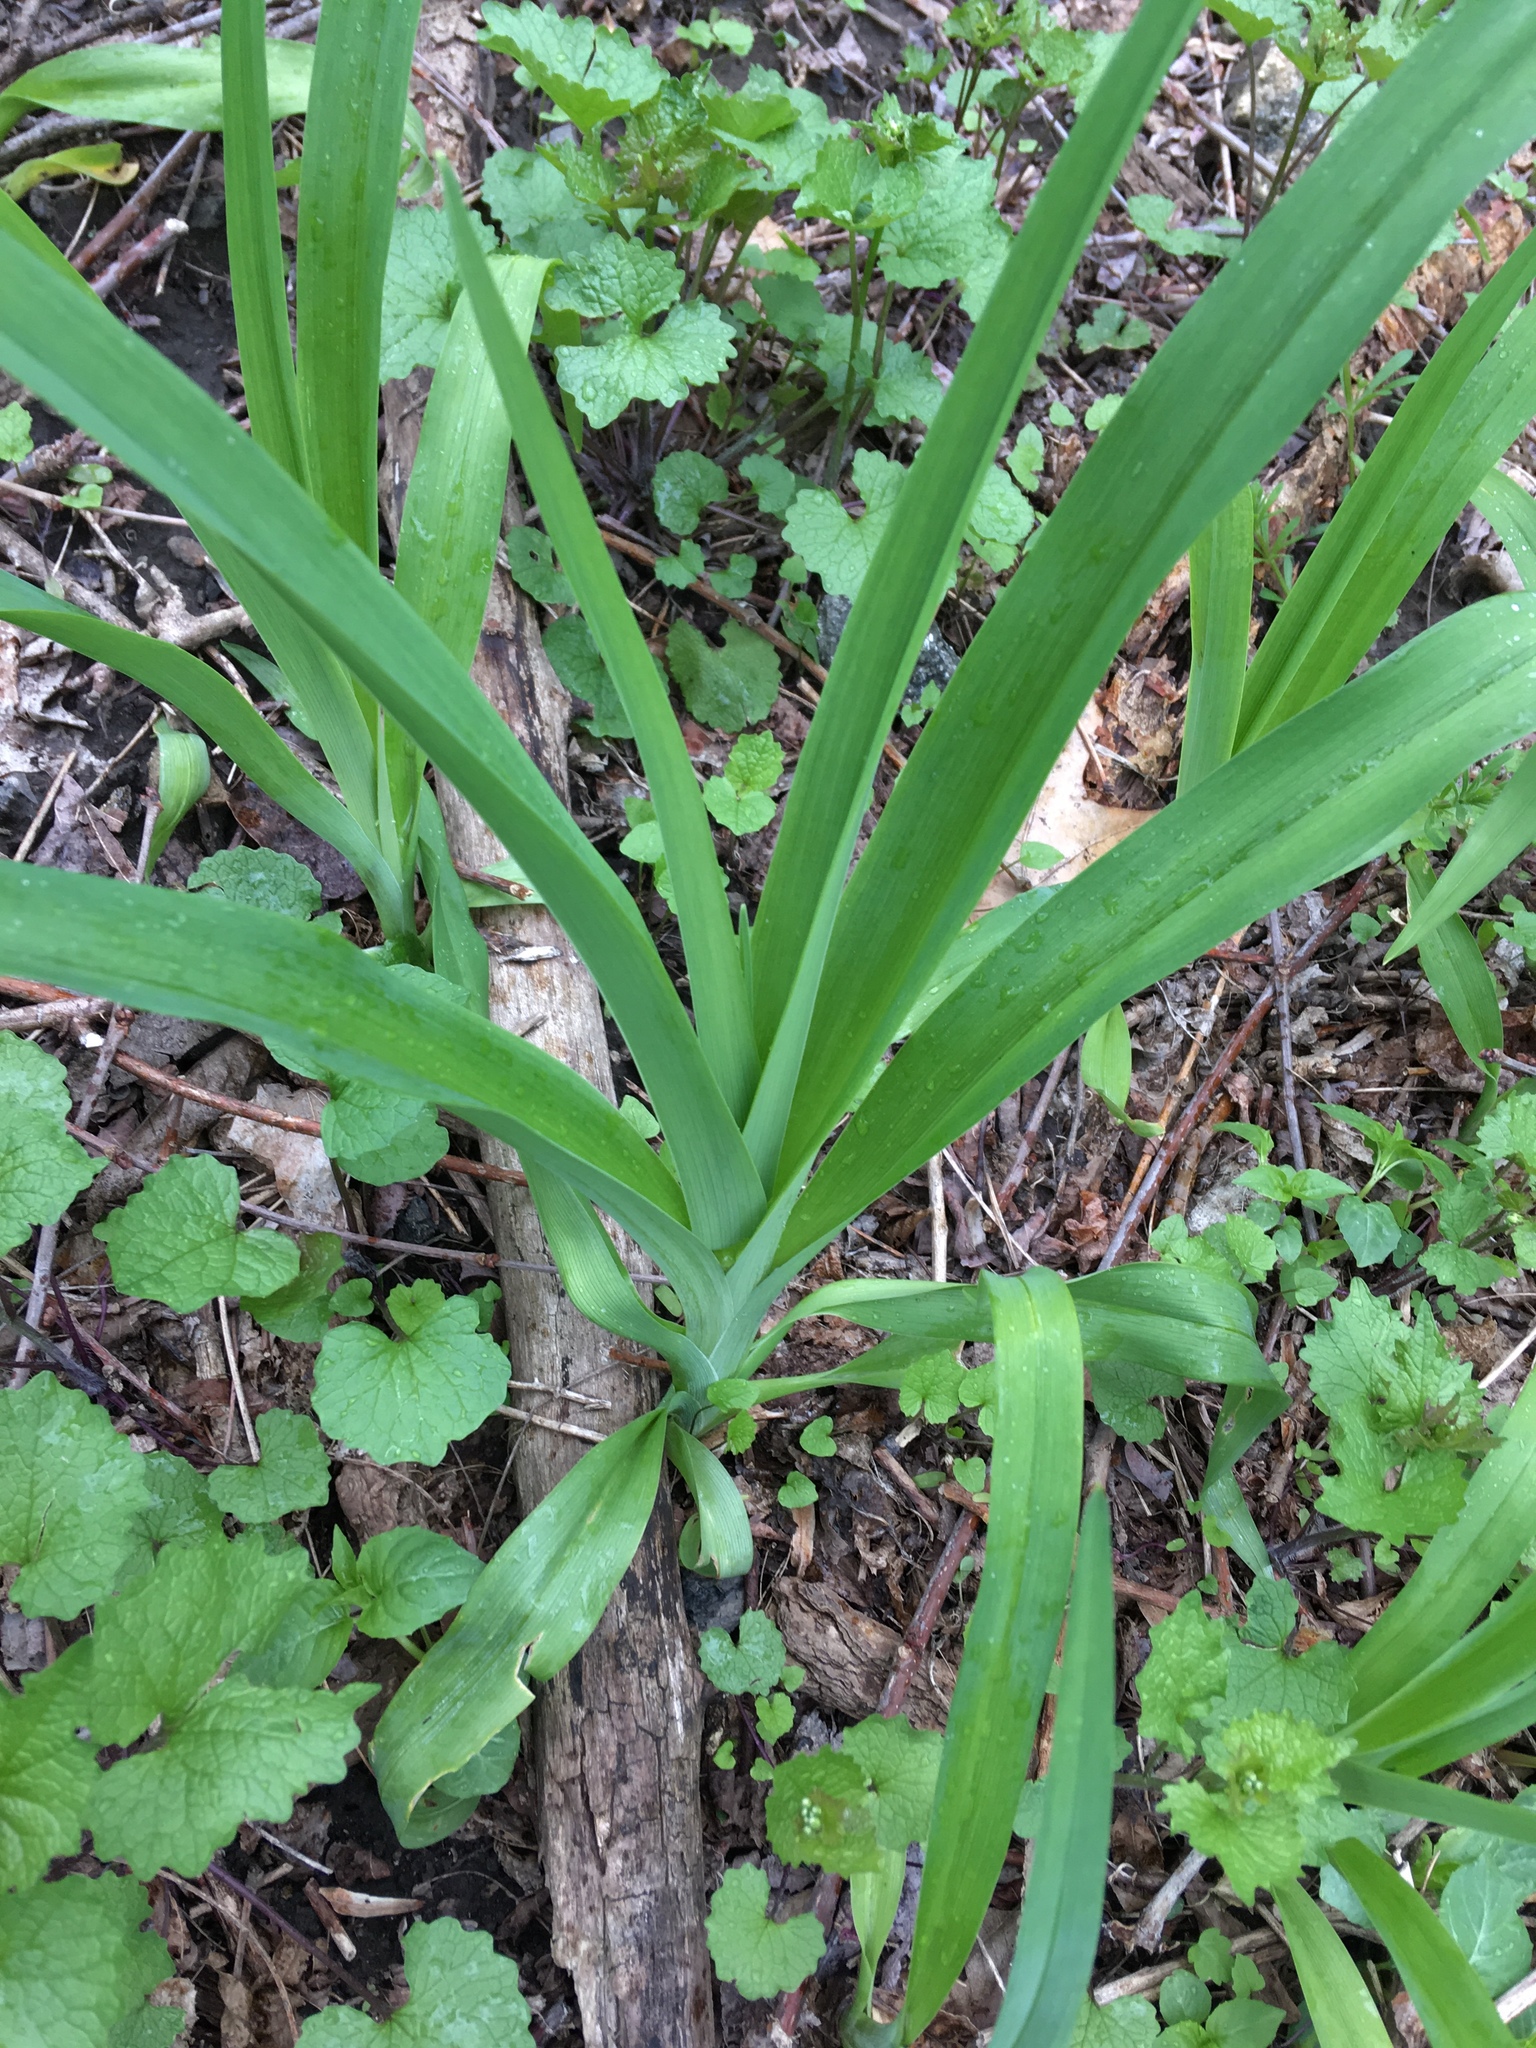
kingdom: Plantae
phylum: Tracheophyta
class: Liliopsida
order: Asparagales
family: Asphodelaceae
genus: Hemerocallis
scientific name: Hemerocallis fulva
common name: Orange day-lily
